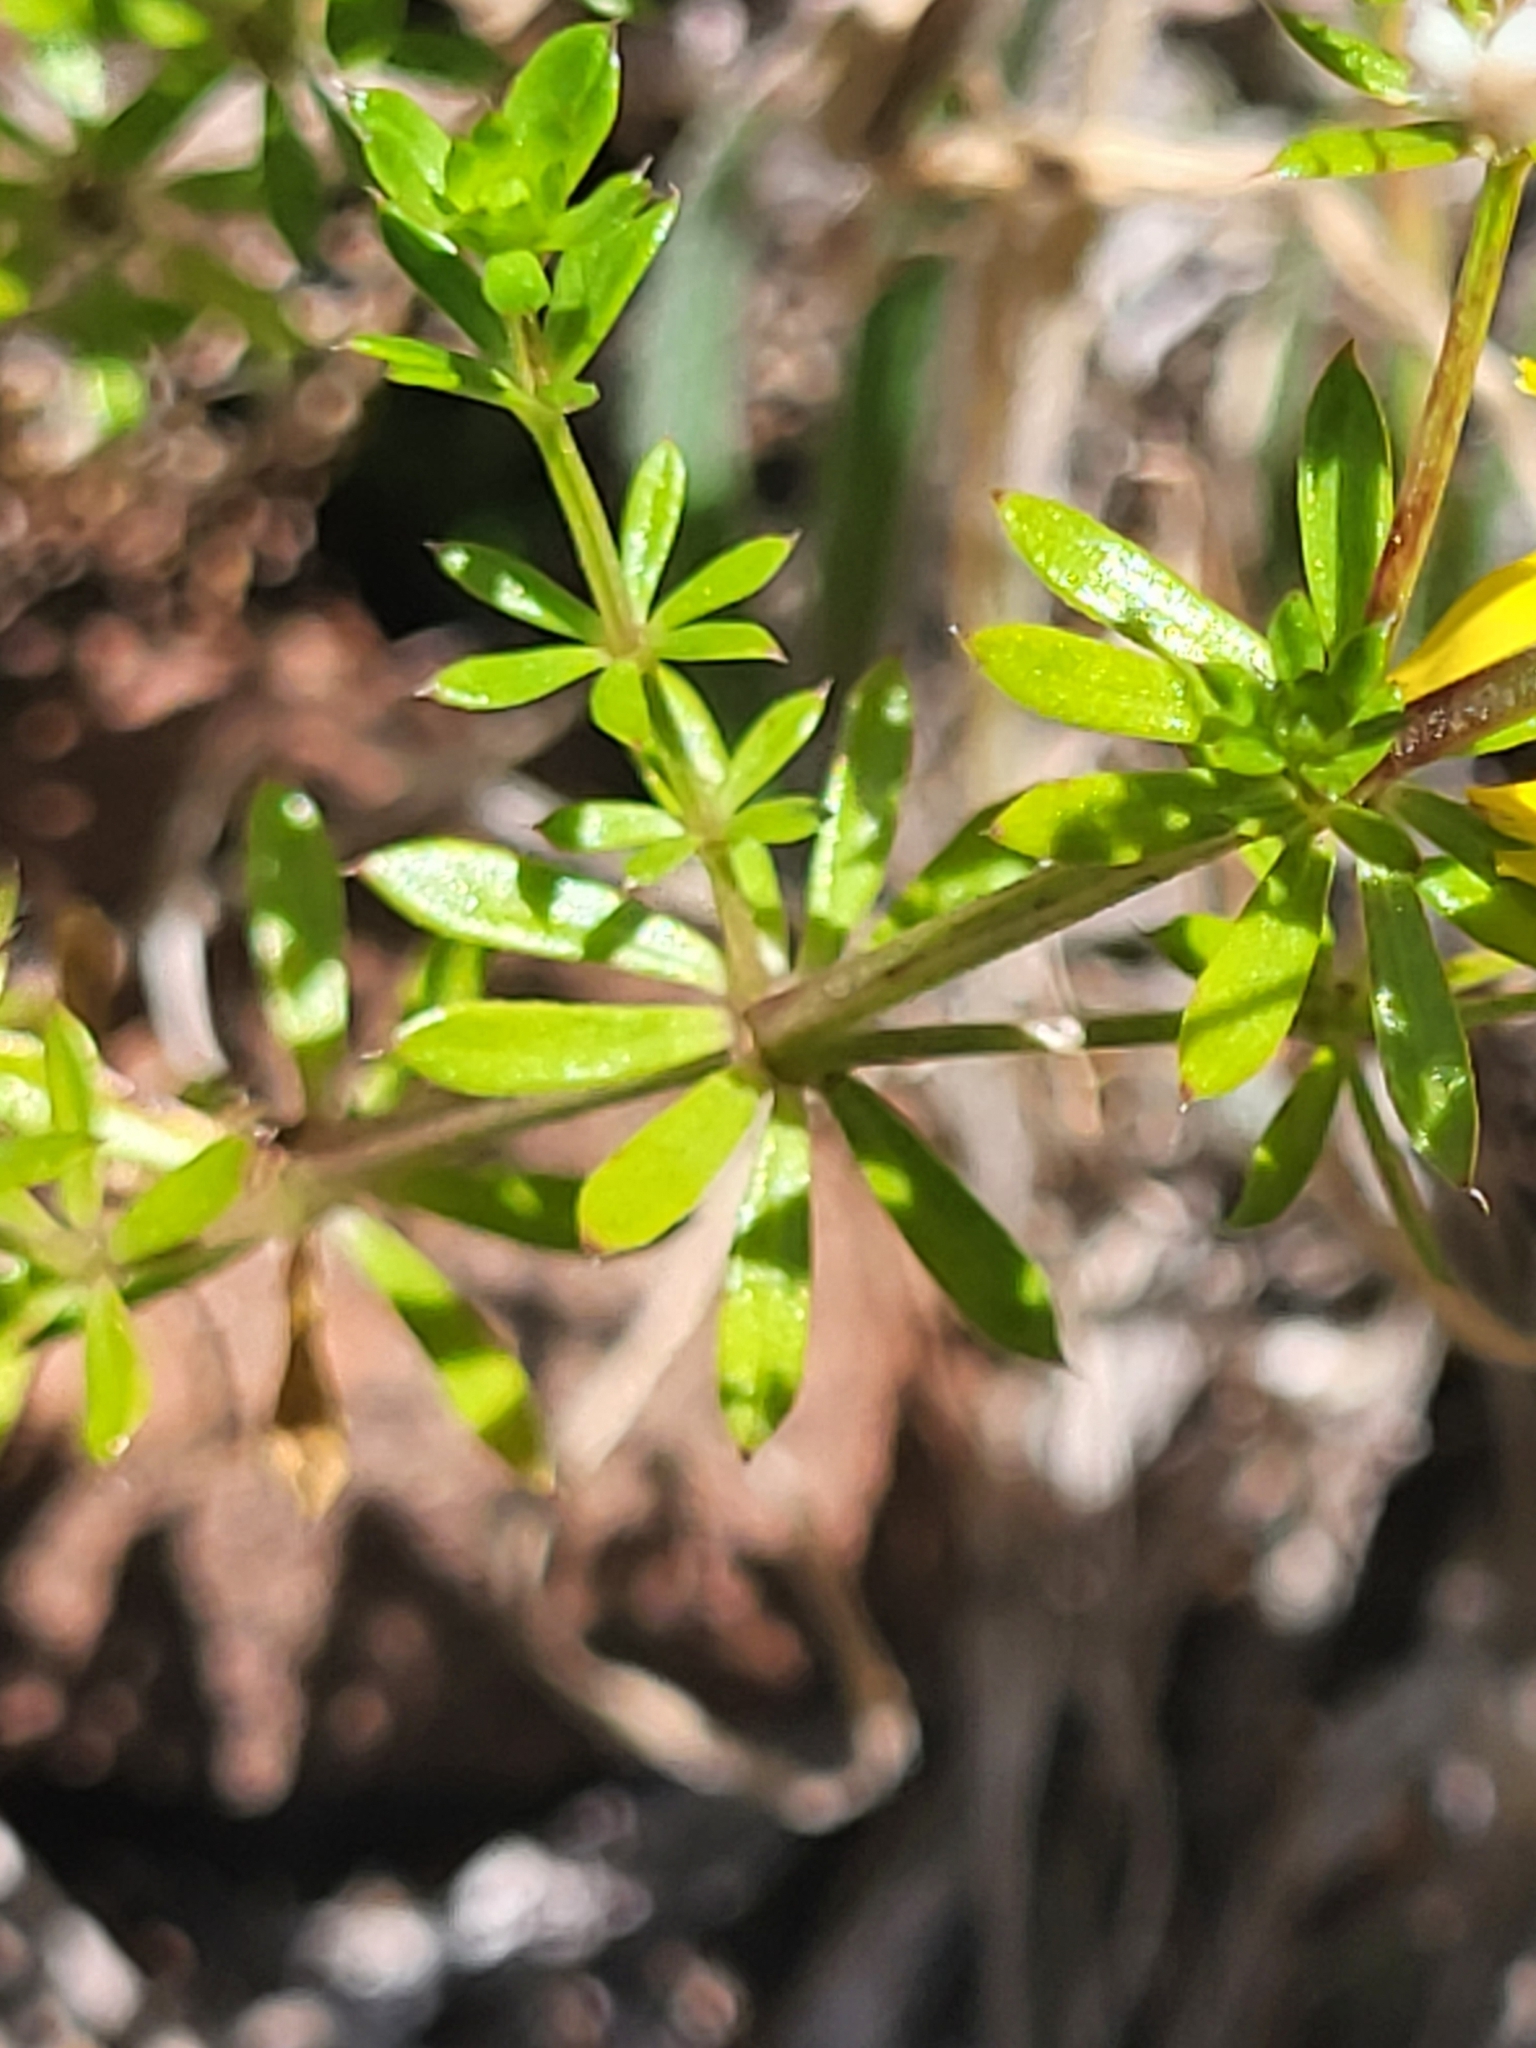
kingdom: Plantae
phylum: Tracheophyta
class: Magnoliopsida
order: Gentianales
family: Rubiaceae
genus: Galium
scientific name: Galium aparine
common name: Cleavers
